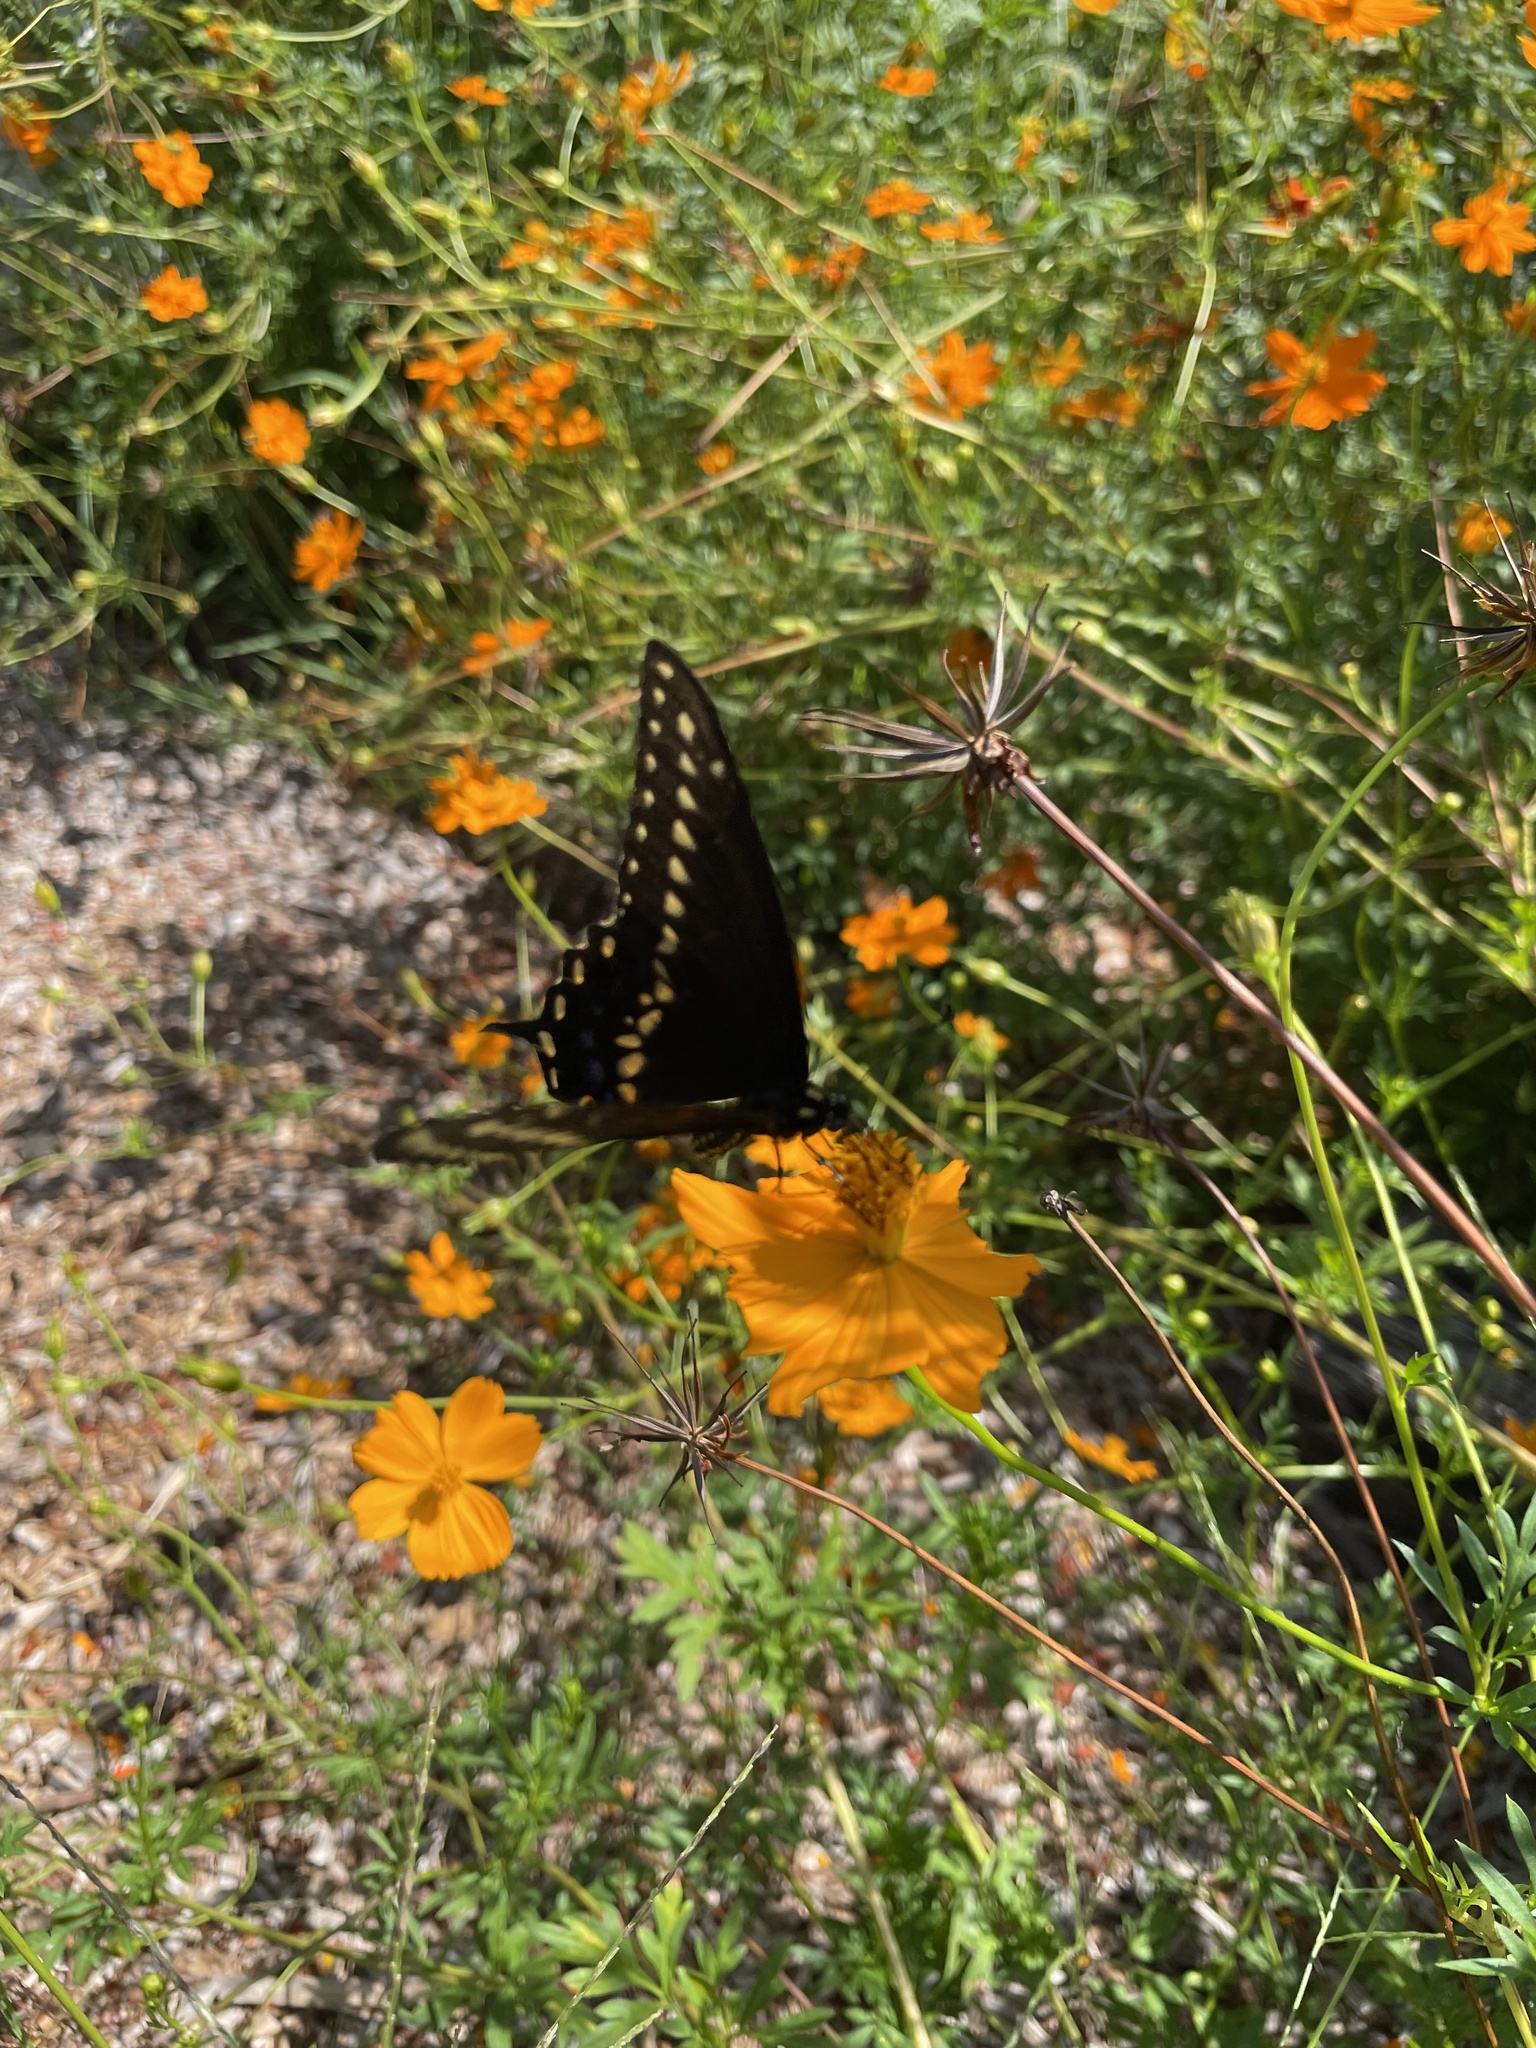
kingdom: Animalia
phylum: Arthropoda
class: Insecta
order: Lepidoptera
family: Papilionidae
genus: Papilio
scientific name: Papilio polyxenes
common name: Black swallowtail
